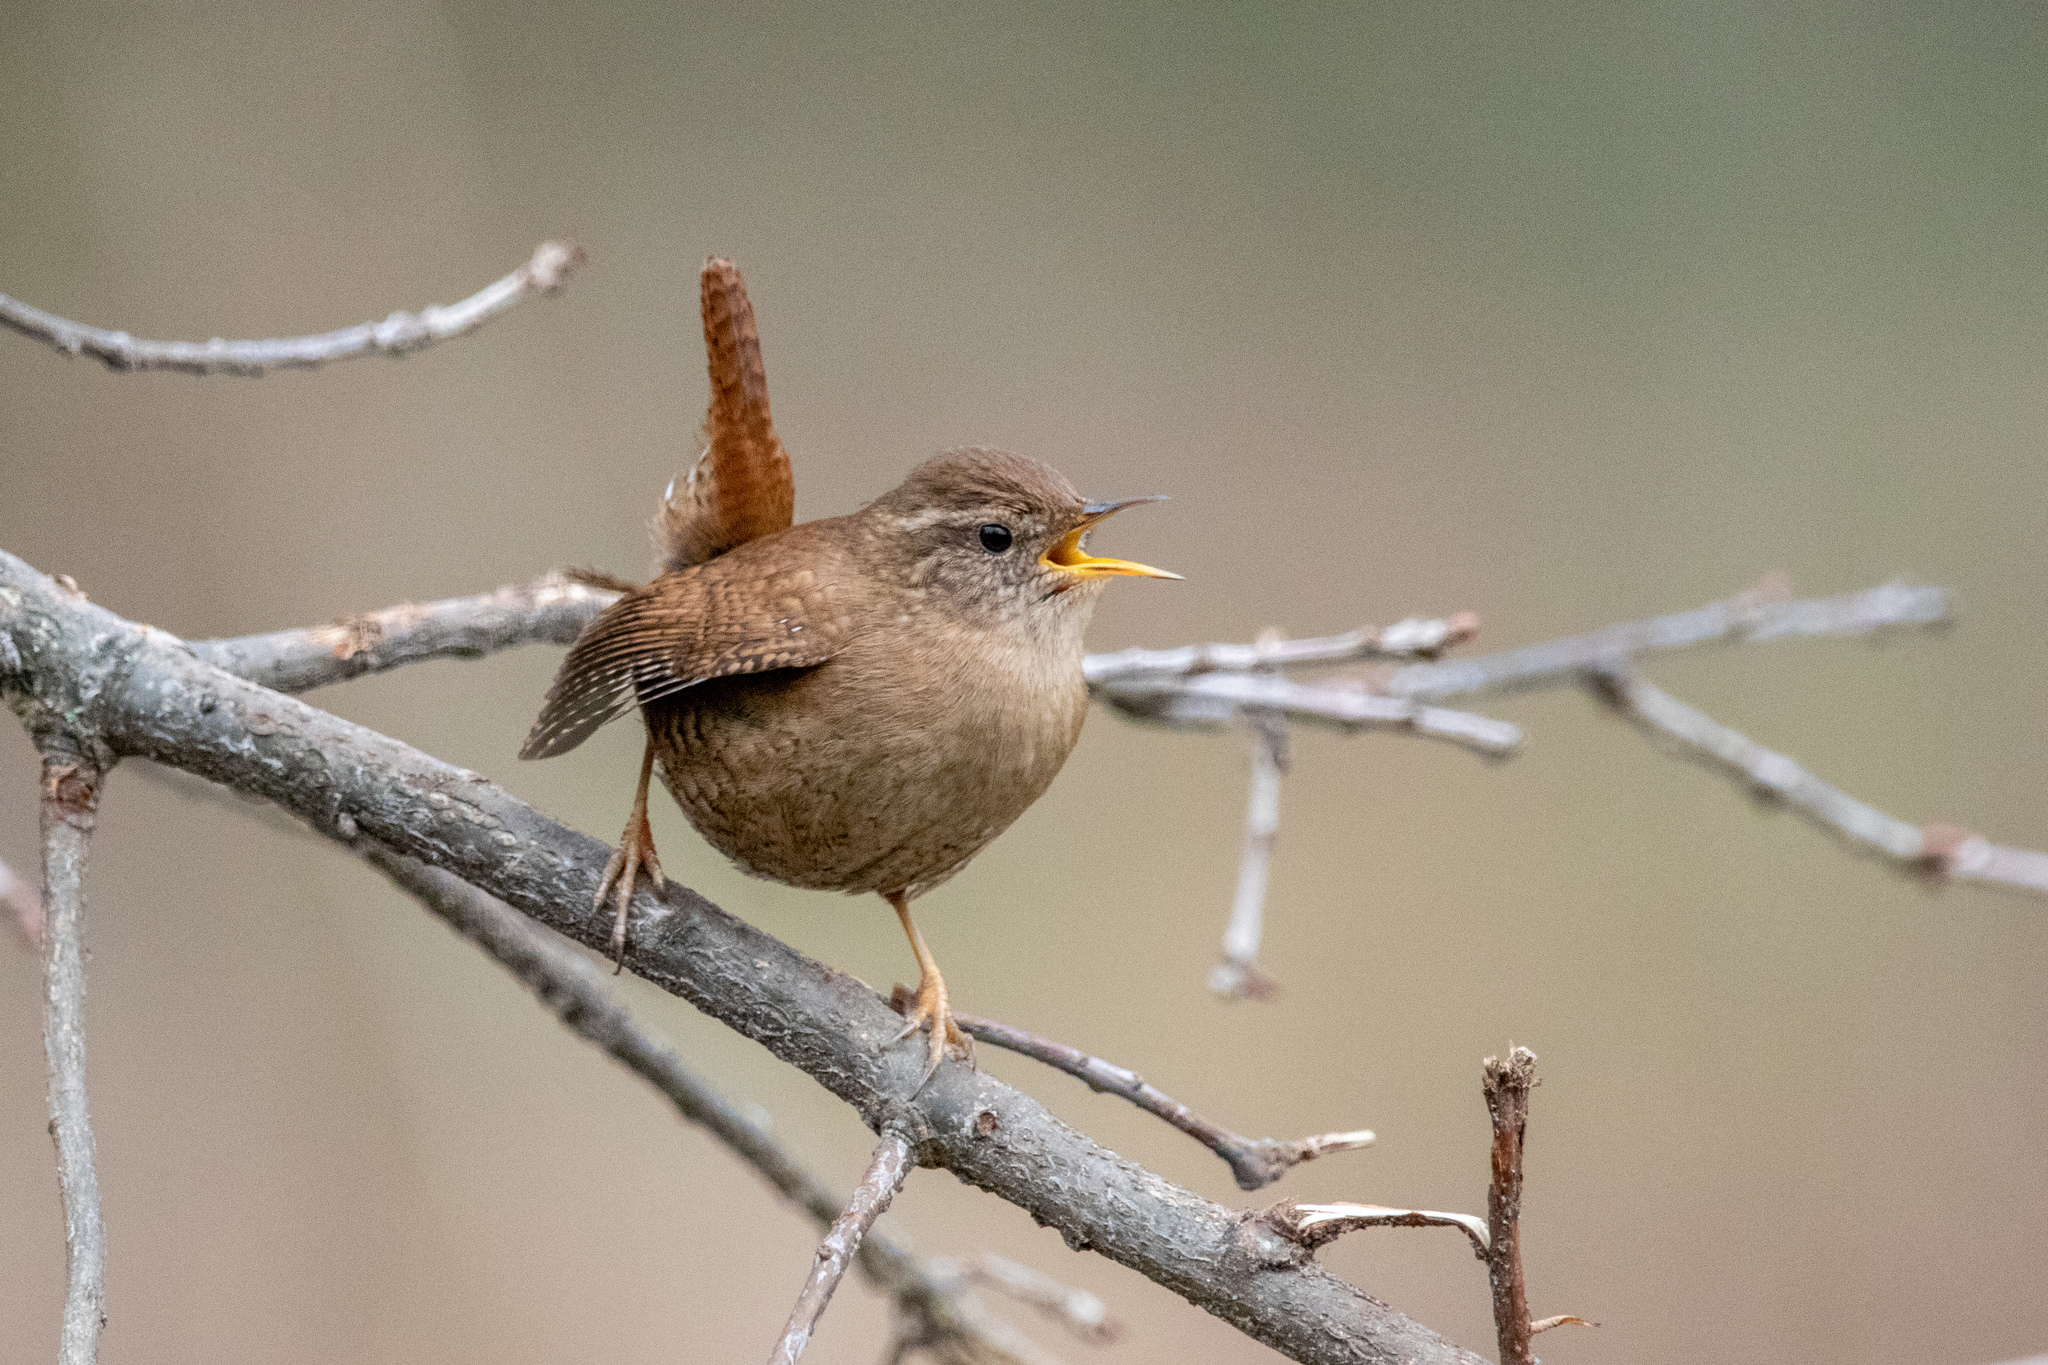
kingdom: Animalia
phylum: Chordata
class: Aves
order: Passeriformes
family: Troglodytidae
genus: Troglodytes
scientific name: Troglodytes troglodytes
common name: Eurasian wren
